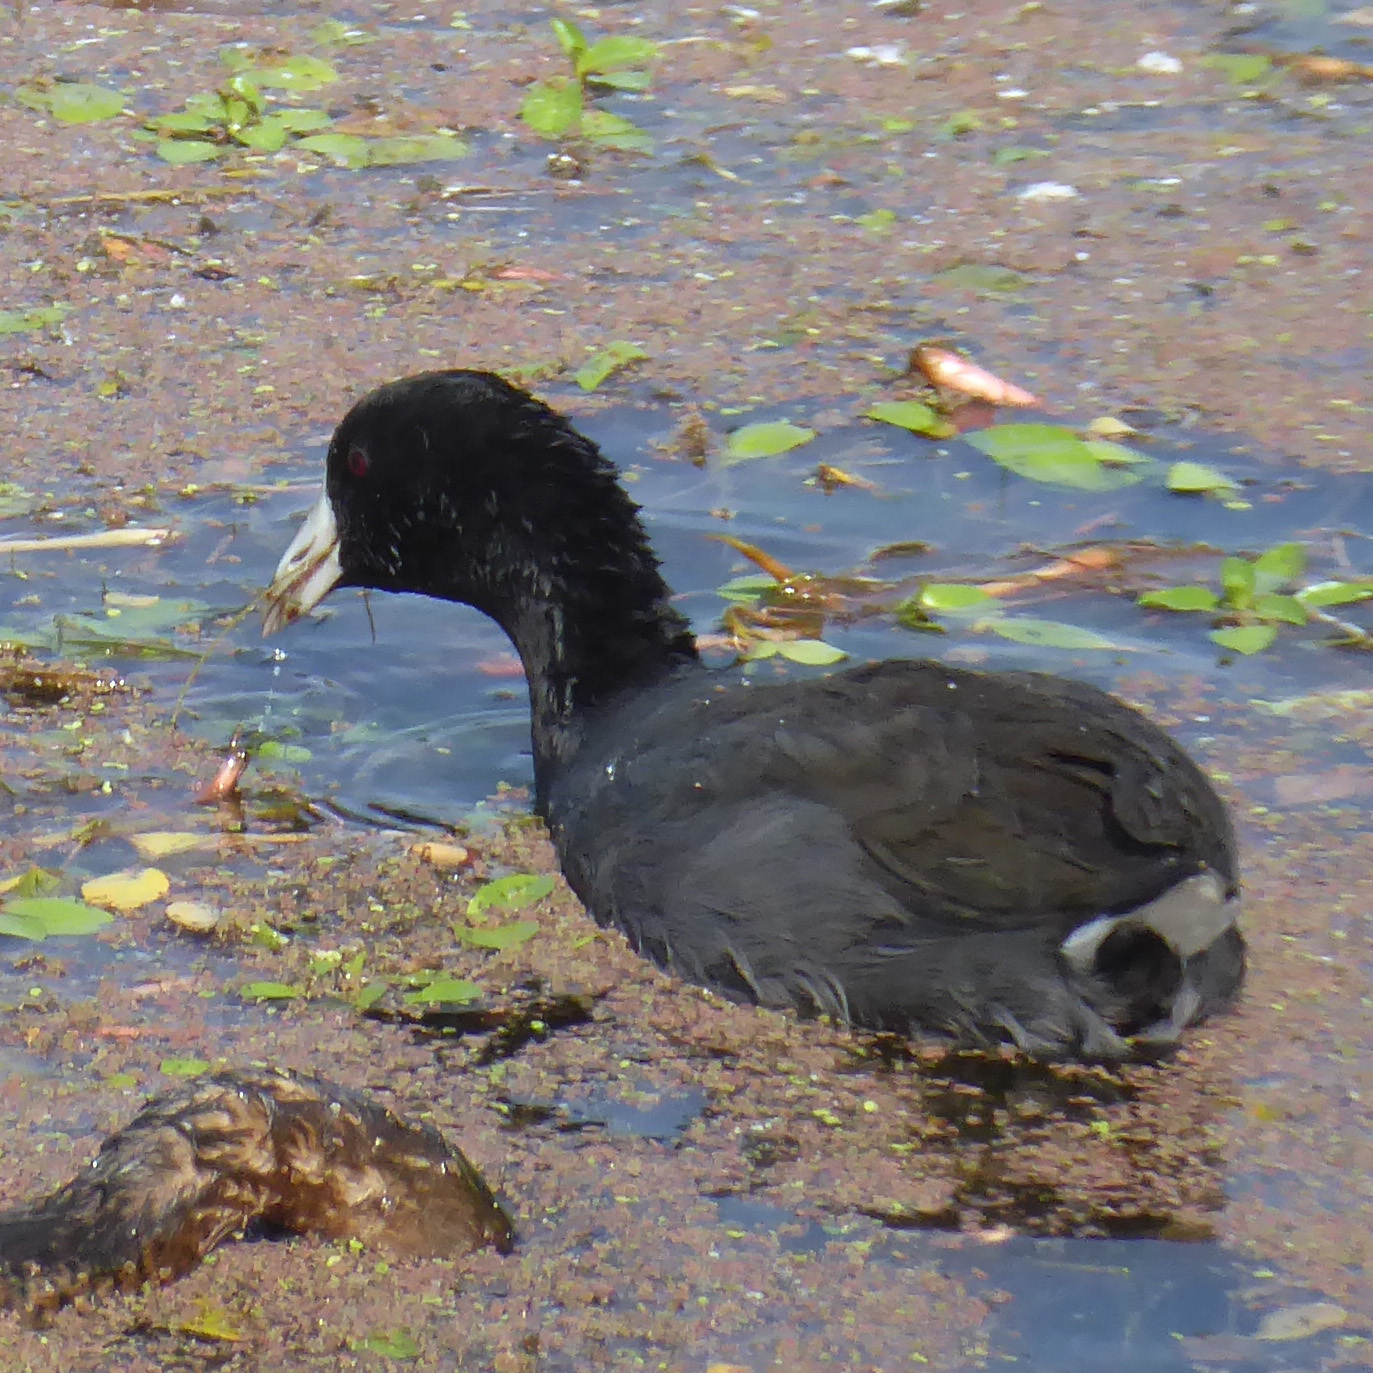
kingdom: Animalia
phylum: Chordata
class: Aves
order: Gruiformes
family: Rallidae
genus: Fulica
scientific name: Fulica americana
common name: American coot
